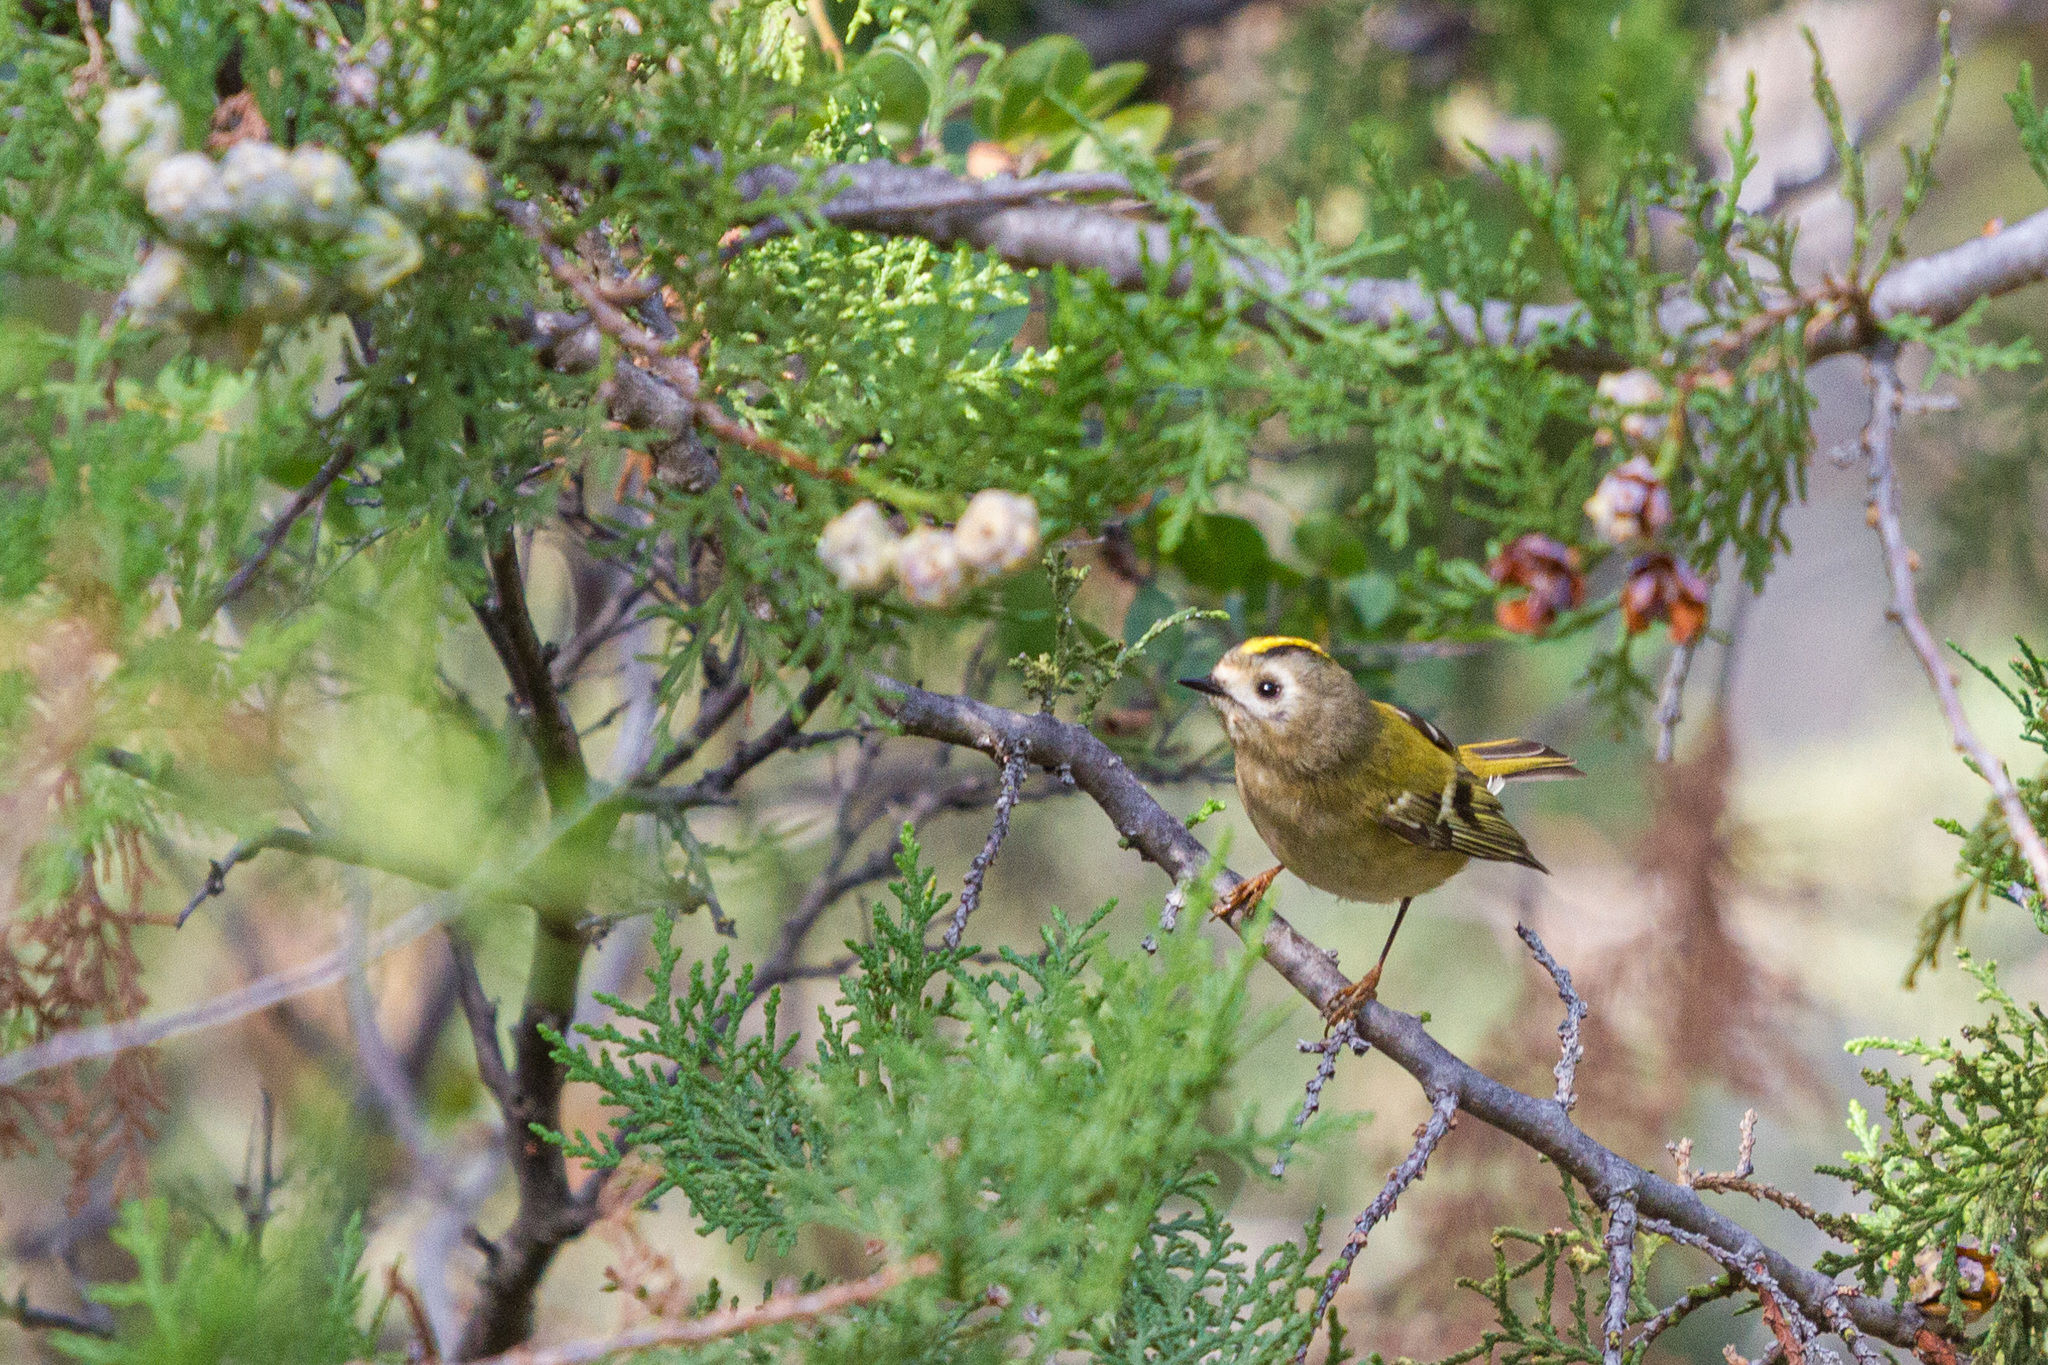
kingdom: Animalia
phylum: Chordata
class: Aves
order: Passeriformes
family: Regulidae
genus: Regulus
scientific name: Regulus regulus
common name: Goldcrest
